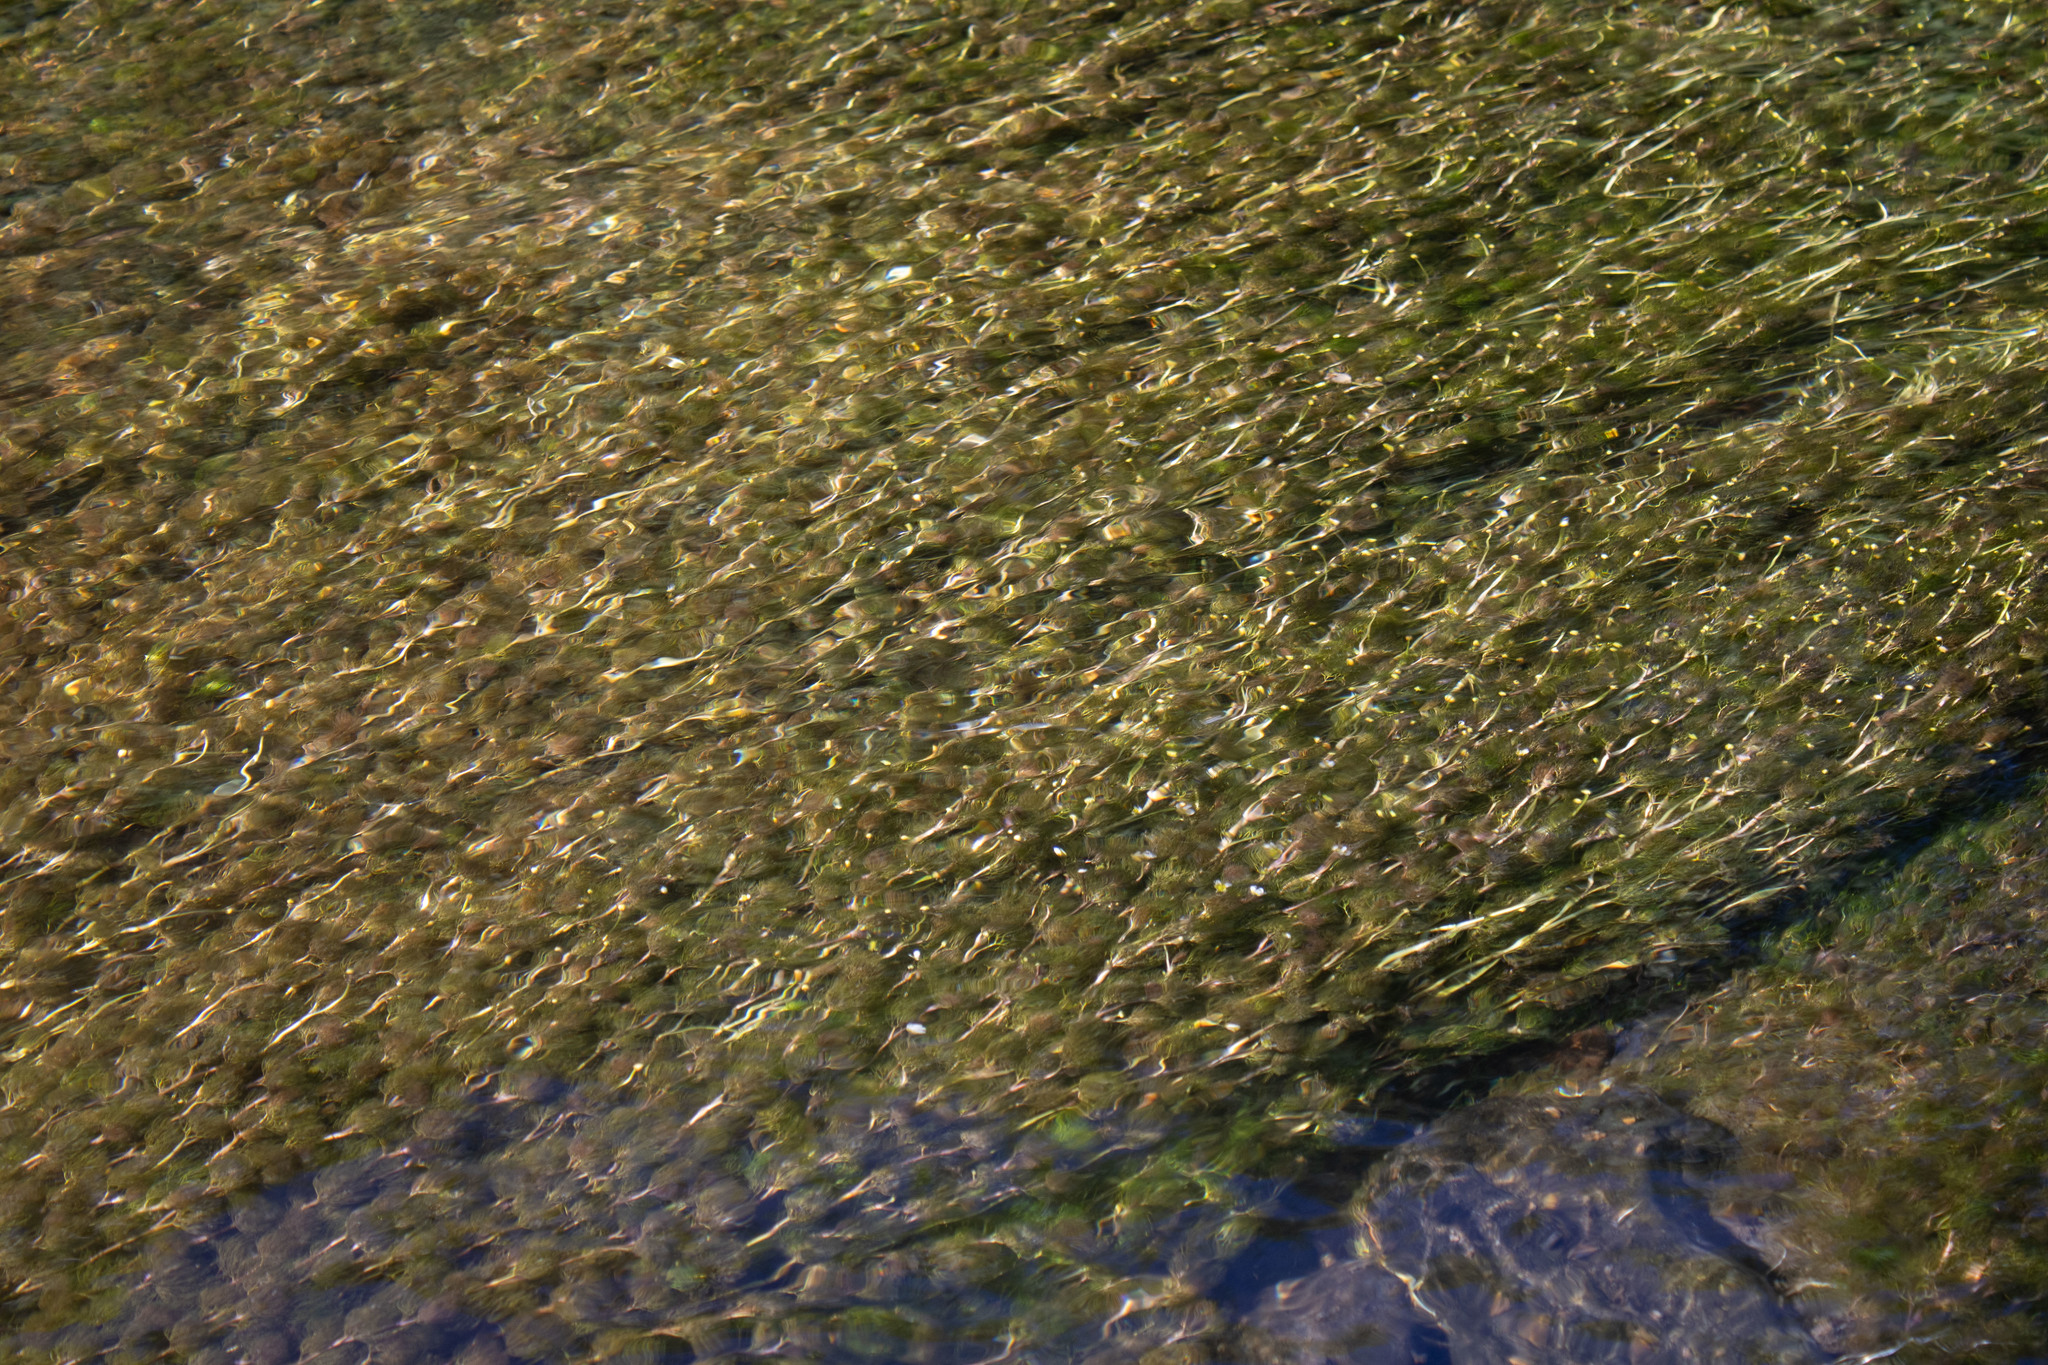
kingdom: Plantae
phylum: Tracheophyta
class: Magnoliopsida
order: Ranunculales
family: Ranunculaceae
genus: Ranunculus
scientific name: Ranunculus aquatilis
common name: Common water-crowfoot
